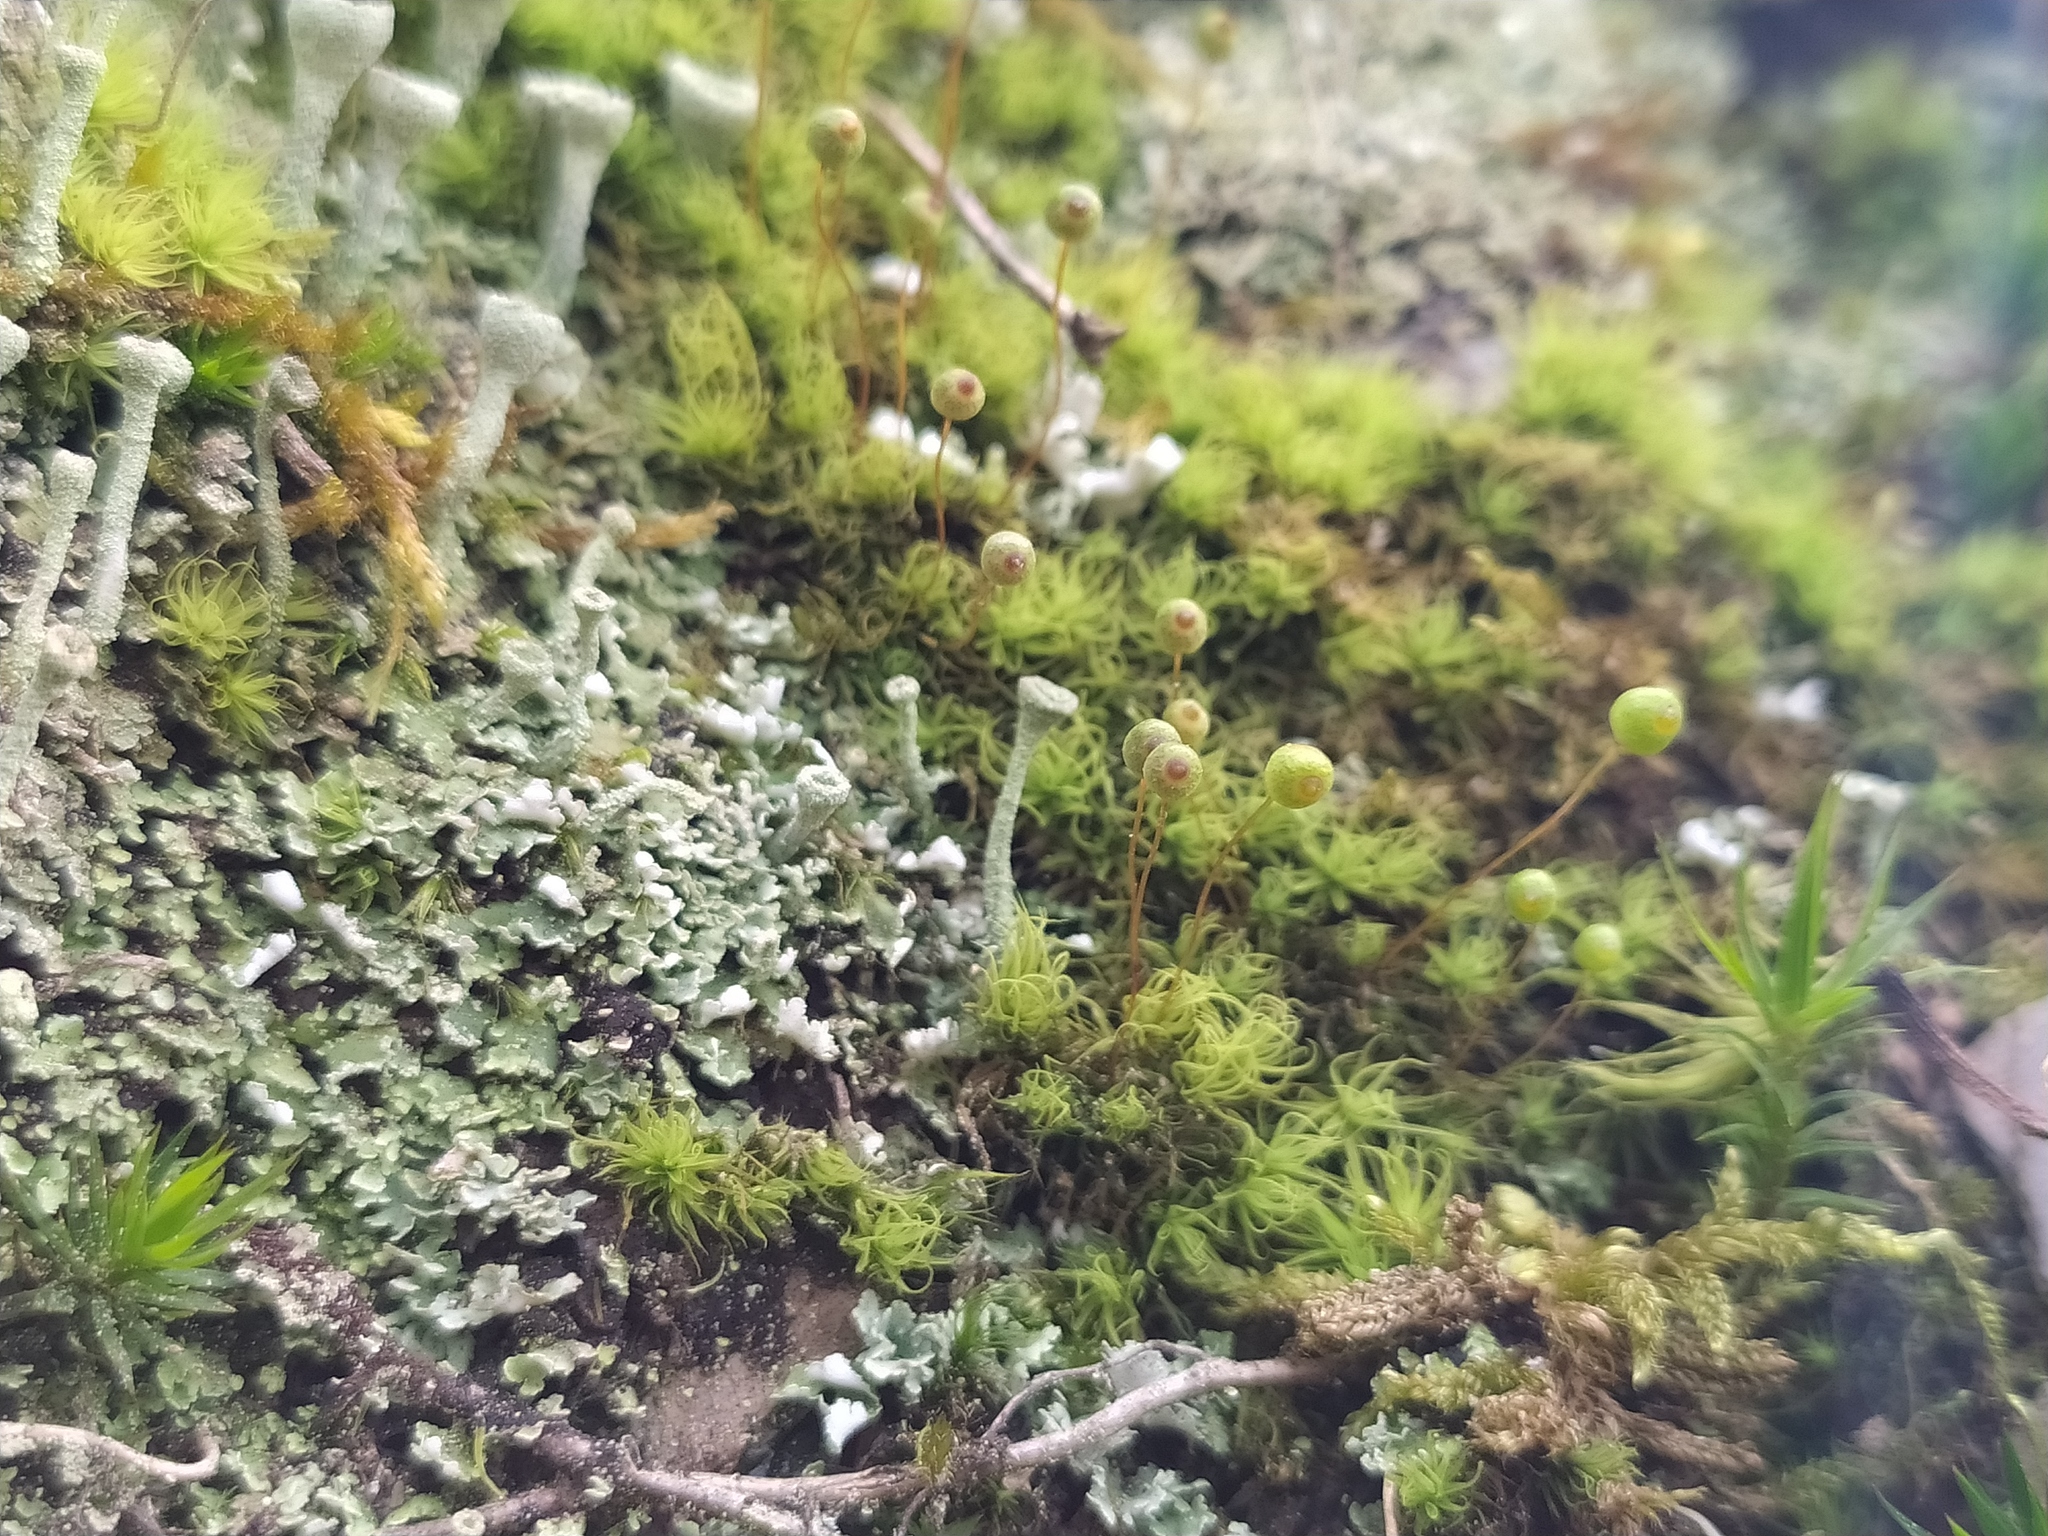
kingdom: Plantae
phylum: Bryophyta
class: Bryopsida
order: Bartramiales
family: Bartramiaceae
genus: Bartramia
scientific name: Bartramia ithyphylla
